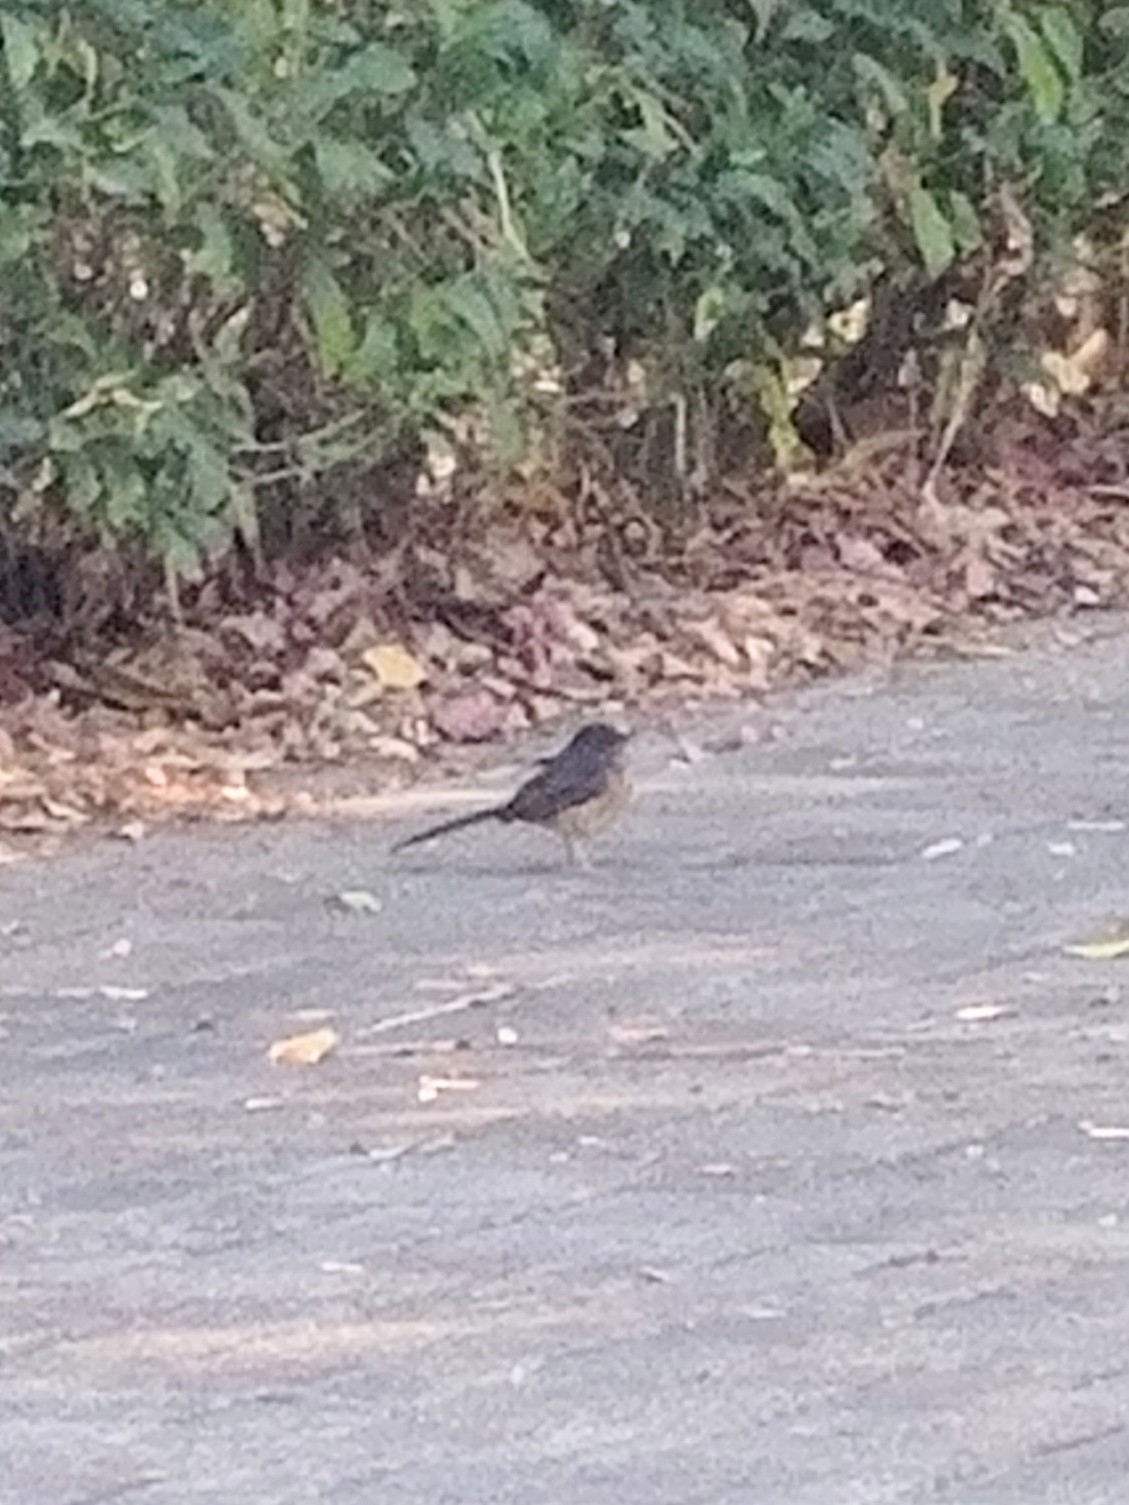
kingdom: Animalia
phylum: Chordata
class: Aves
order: Passeriformes
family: Muscicapidae
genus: Copsychus
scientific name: Copsychus malabaricus
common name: White-rumped shama
